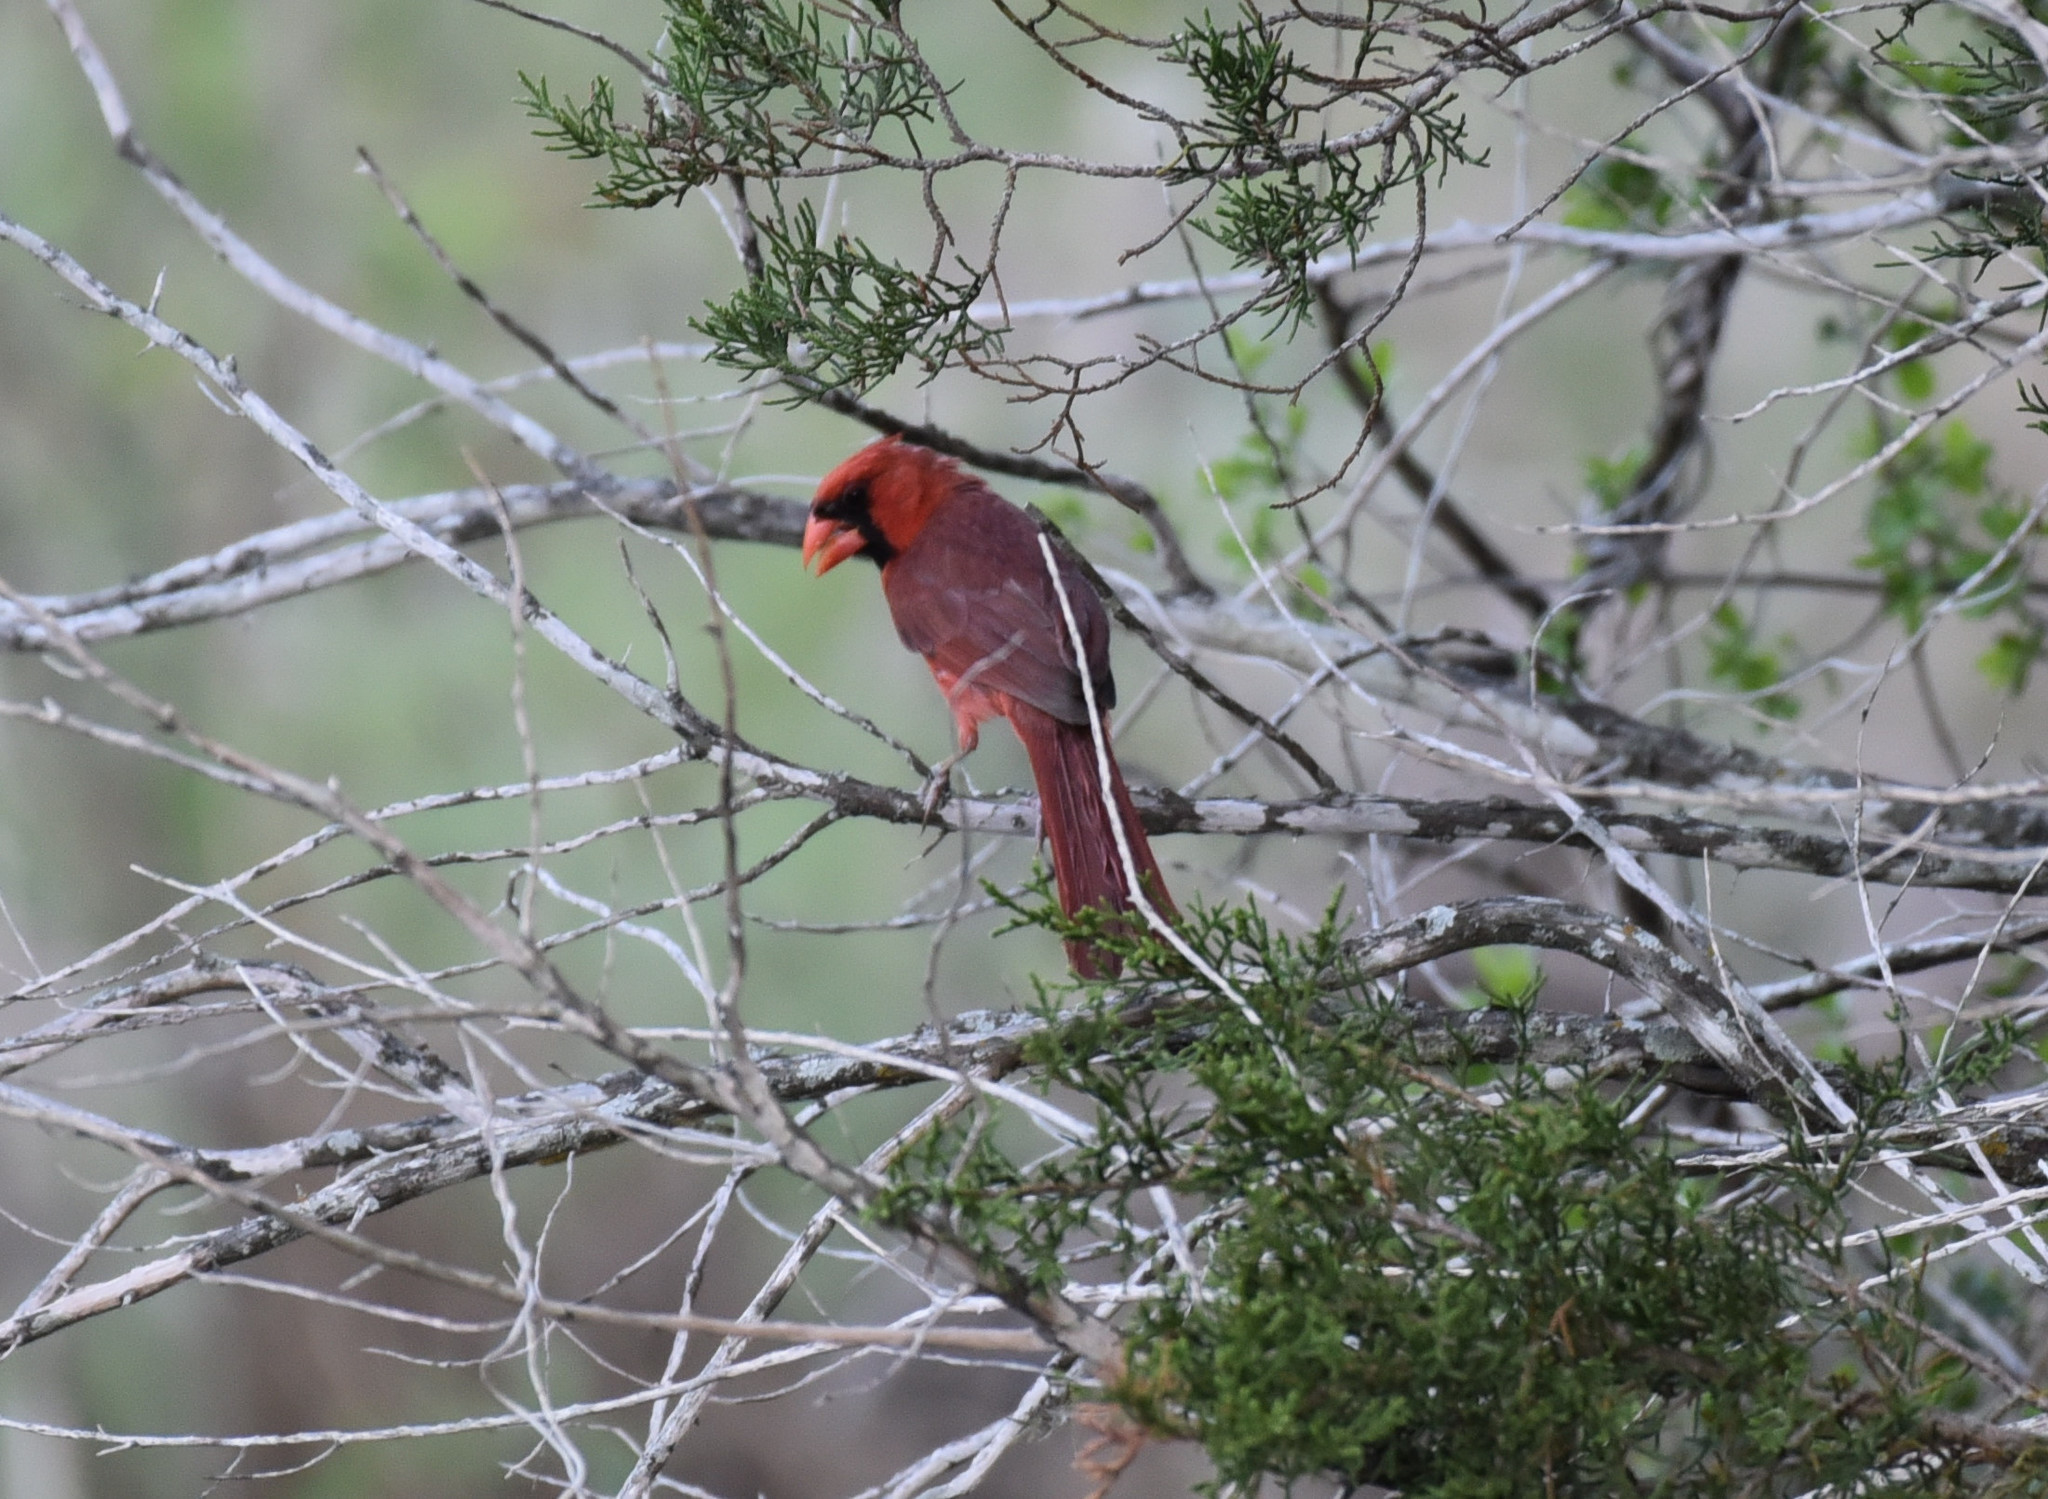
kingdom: Animalia
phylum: Chordata
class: Aves
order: Passeriformes
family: Cardinalidae
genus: Cardinalis
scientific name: Cardinalis cardinalis
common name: Northern cardinal
